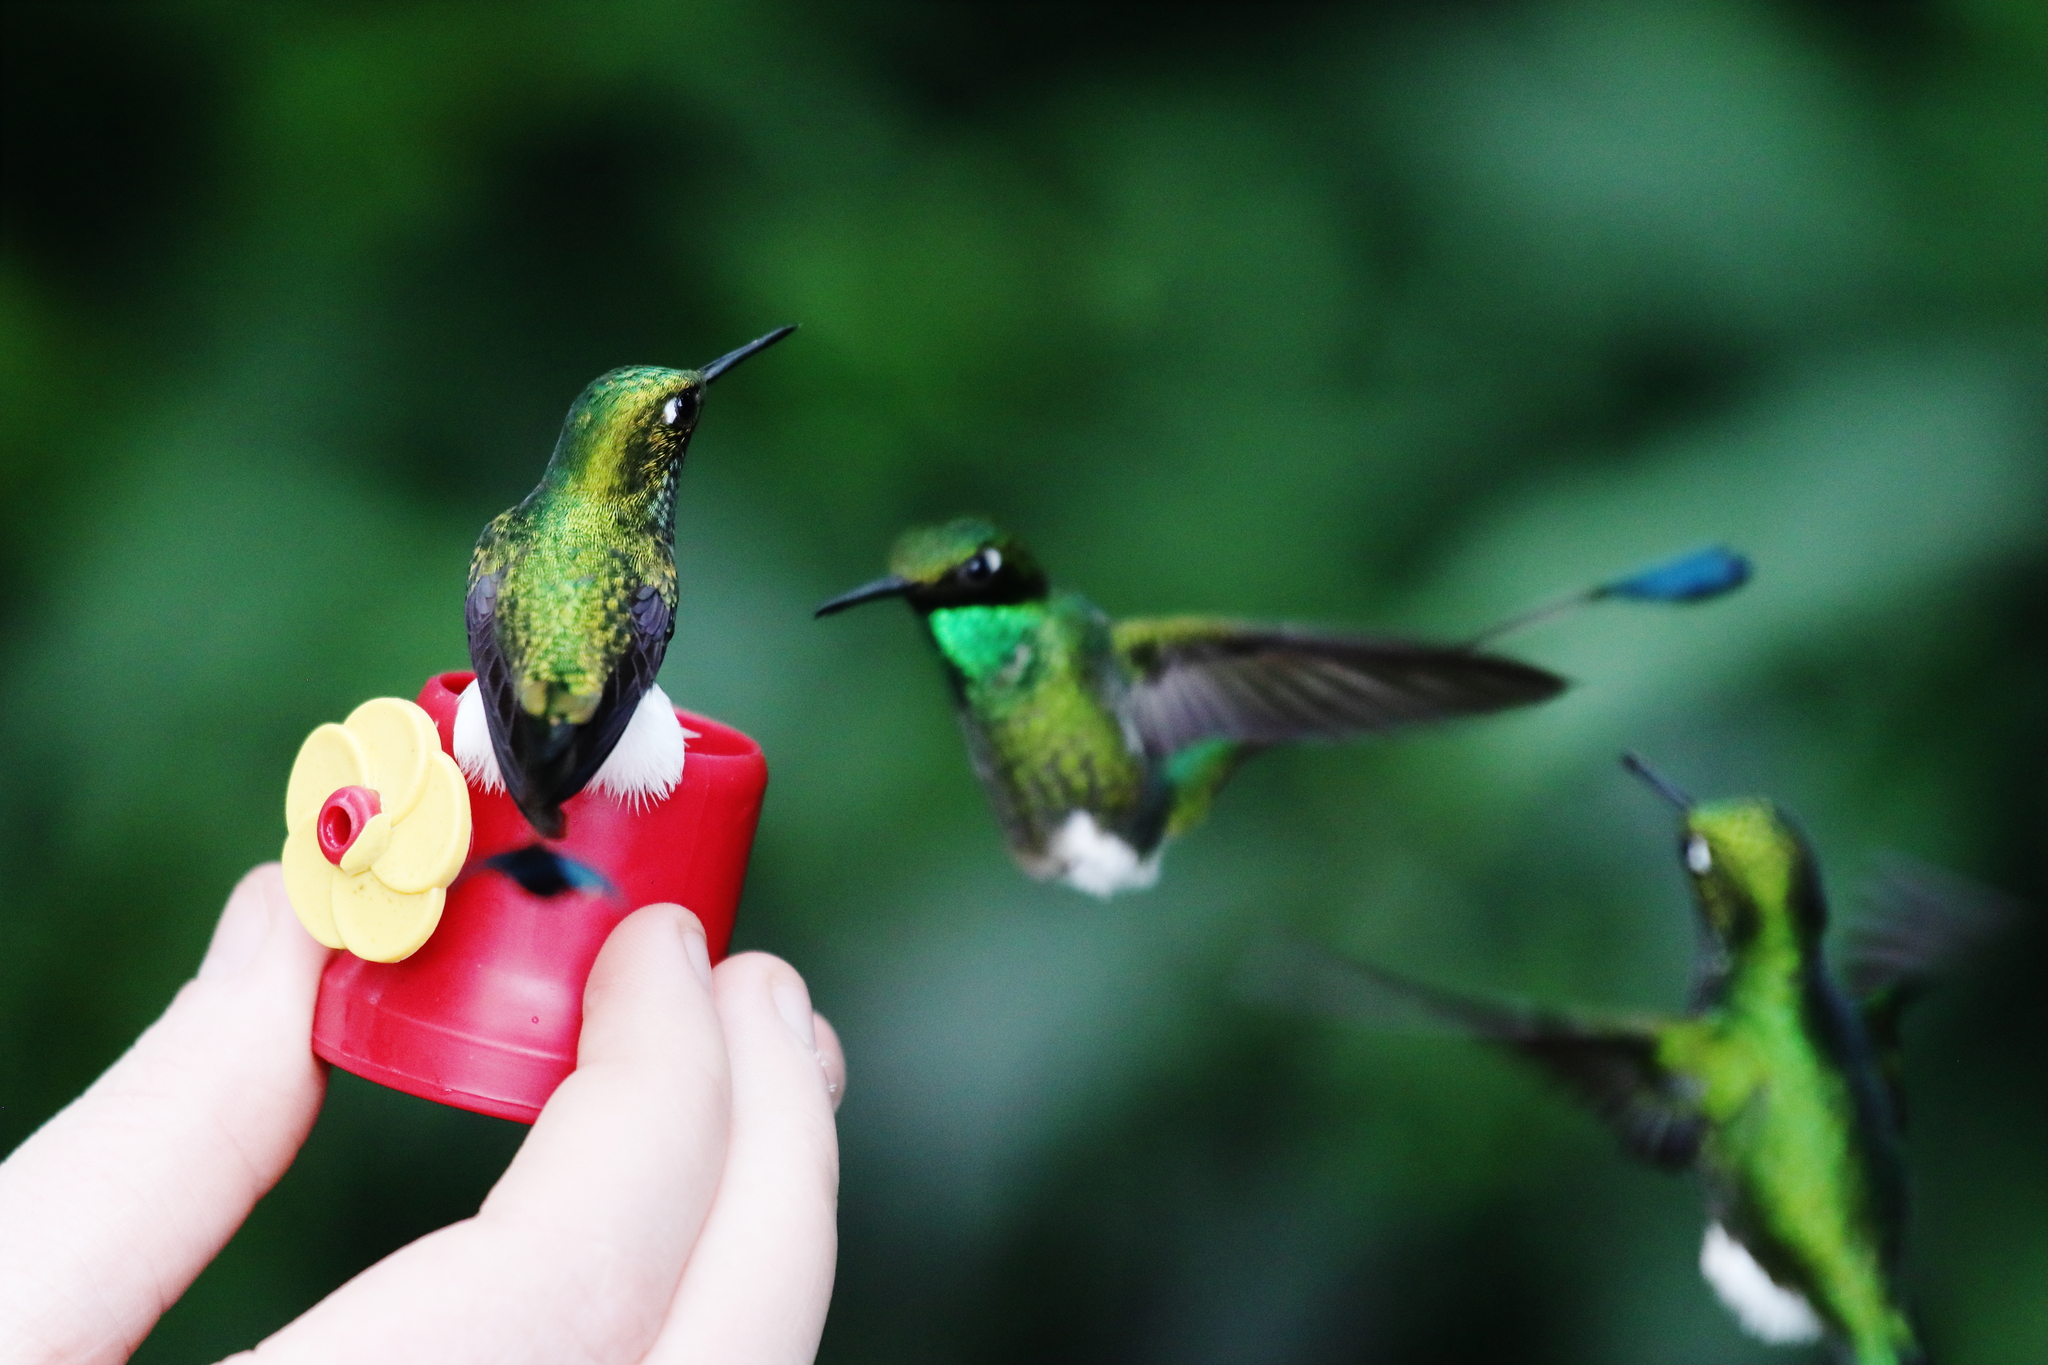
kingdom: Animalia
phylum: Chordata
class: Aves
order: Apodiformes
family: Trochilidae
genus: Ocreatus
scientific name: Ocreatus underwoodii
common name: Booted racket-tail
